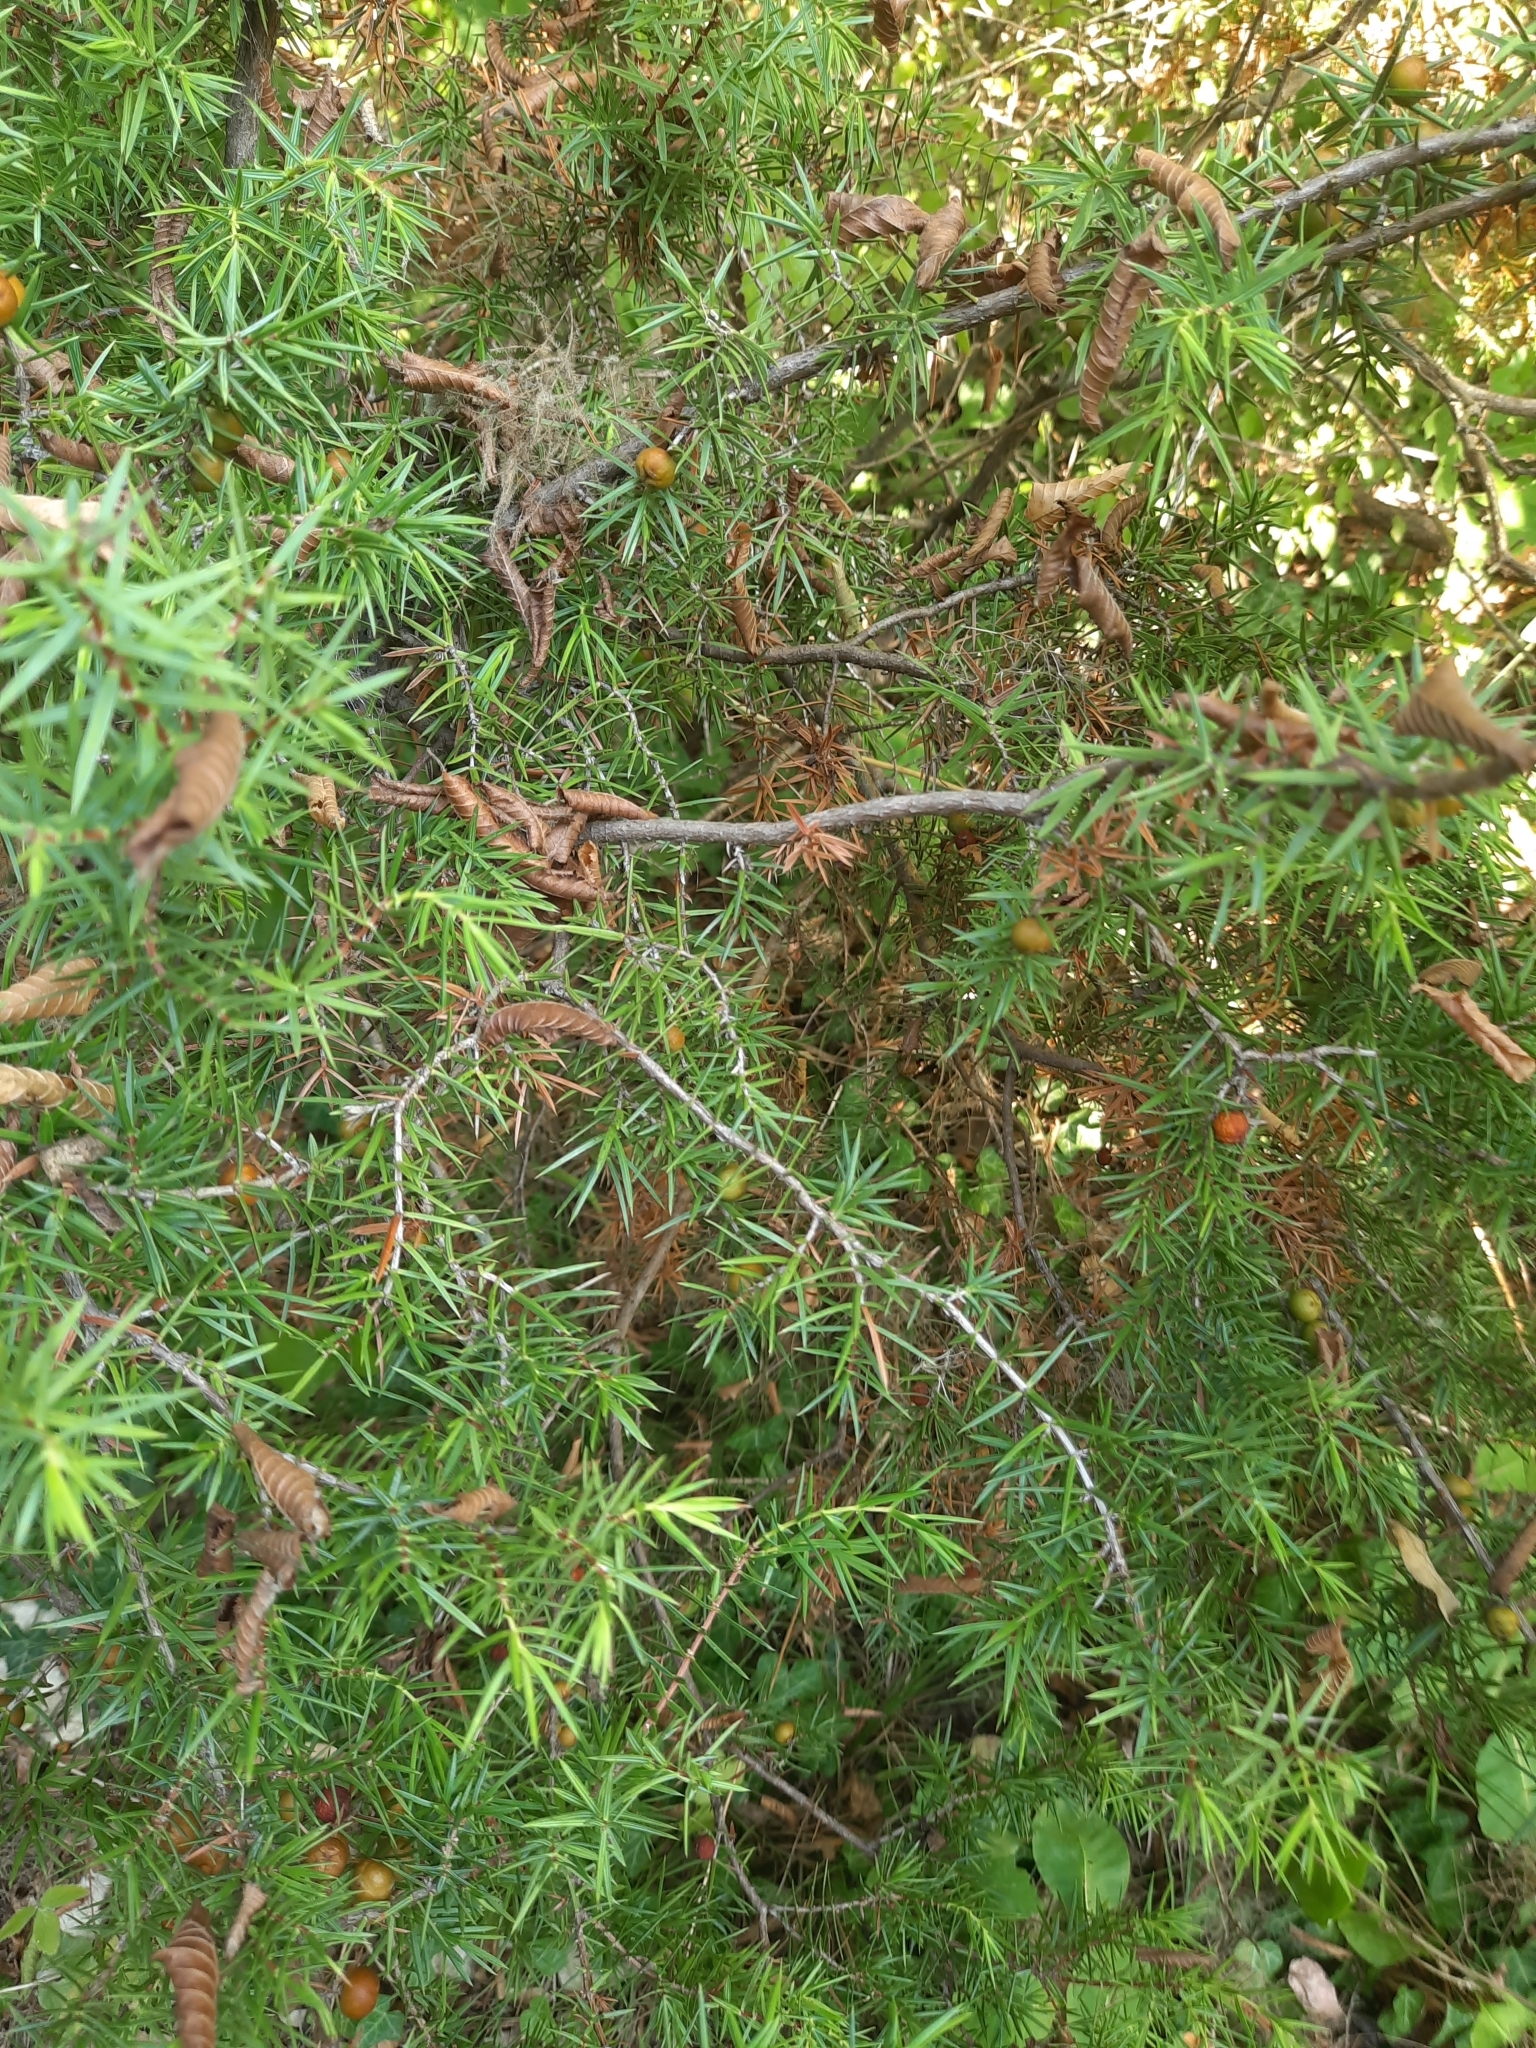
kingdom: Plantae
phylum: Tracheophyta
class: Pinopsida
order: Pinales
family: Cupressaceae
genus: Juniperus
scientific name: Juniperus oxycedrus
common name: Prickly juniper
